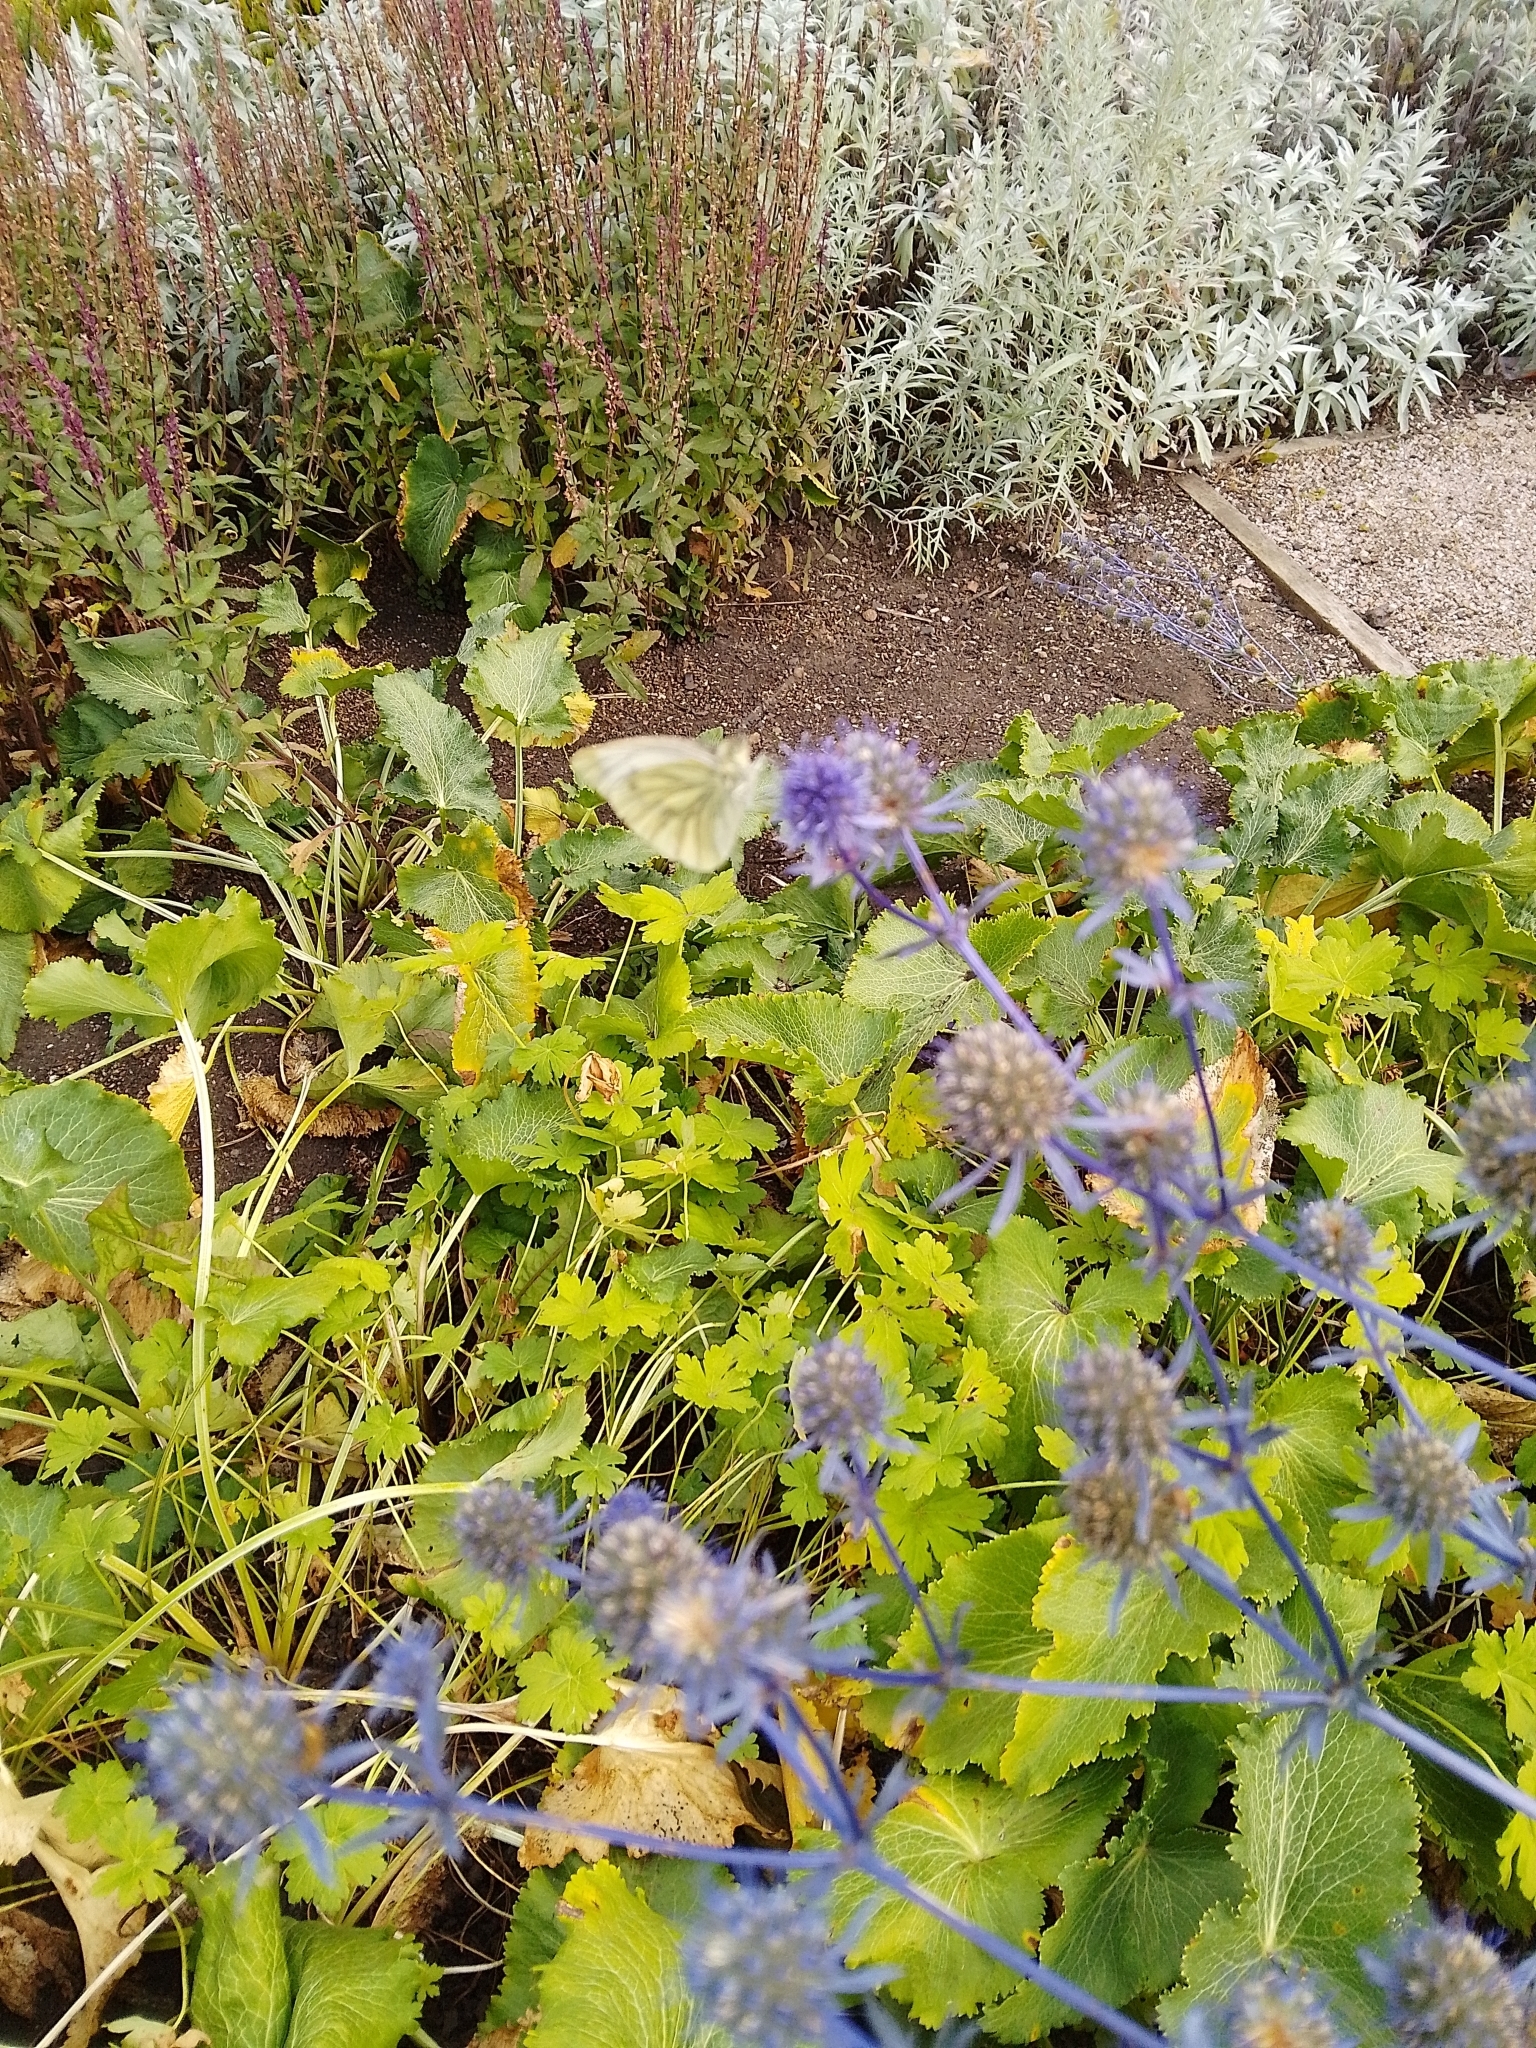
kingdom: Animalia
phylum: Arthropoda
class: Insecta
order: Lepidoptera
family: Pieridae
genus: Pieris
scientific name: Pieris napi
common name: Green-veined white
